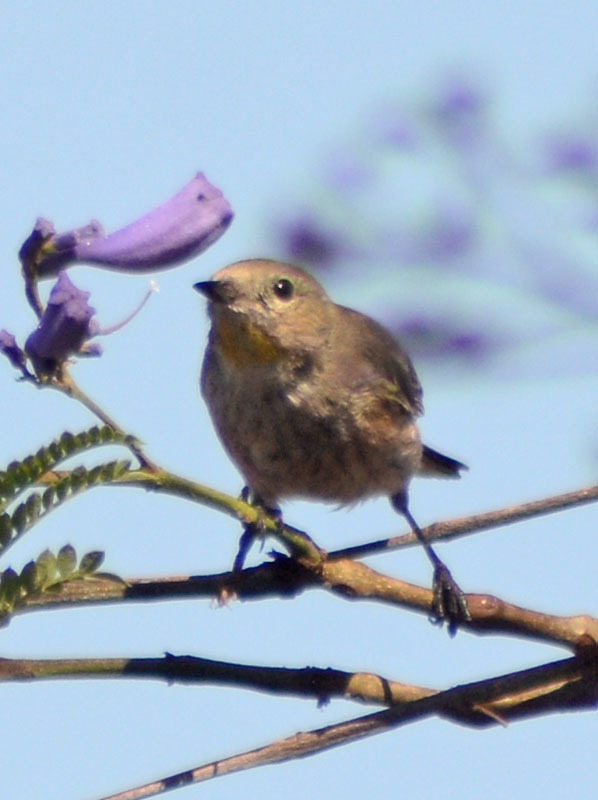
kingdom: Animalia
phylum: Chordata
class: Aves
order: Passeriformes
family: Parulidae
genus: Setophaga
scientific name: Setophaga auduboni
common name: Audubon's warbler
